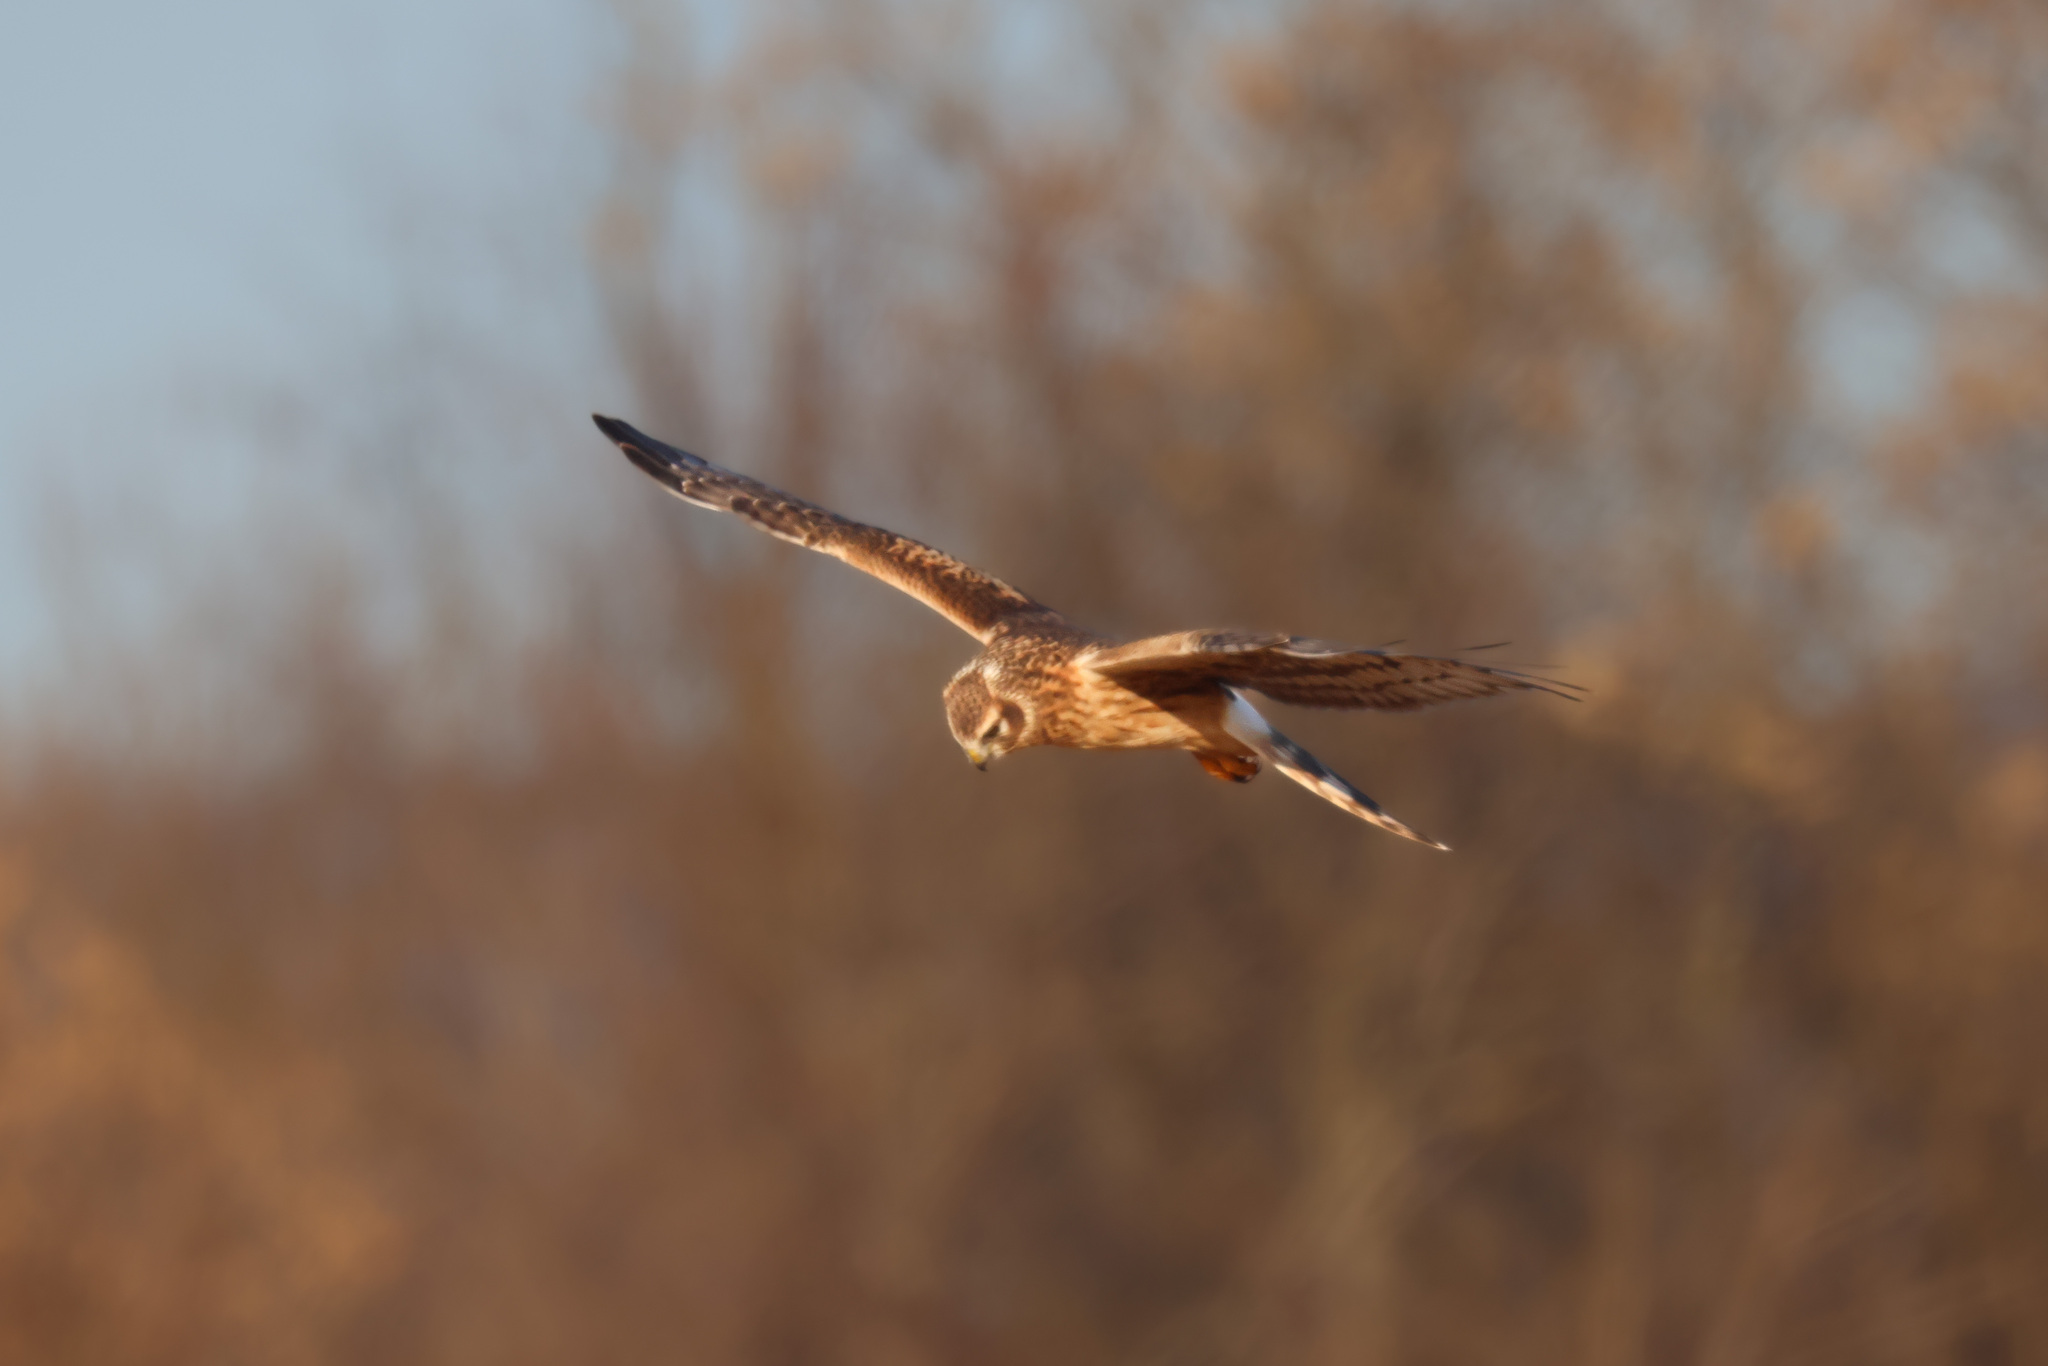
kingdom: Animalia
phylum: Chordata
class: Aves
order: Accipitriformes
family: Accipitridae
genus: Circus
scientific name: Circus cyaneus
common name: Hen harrier
